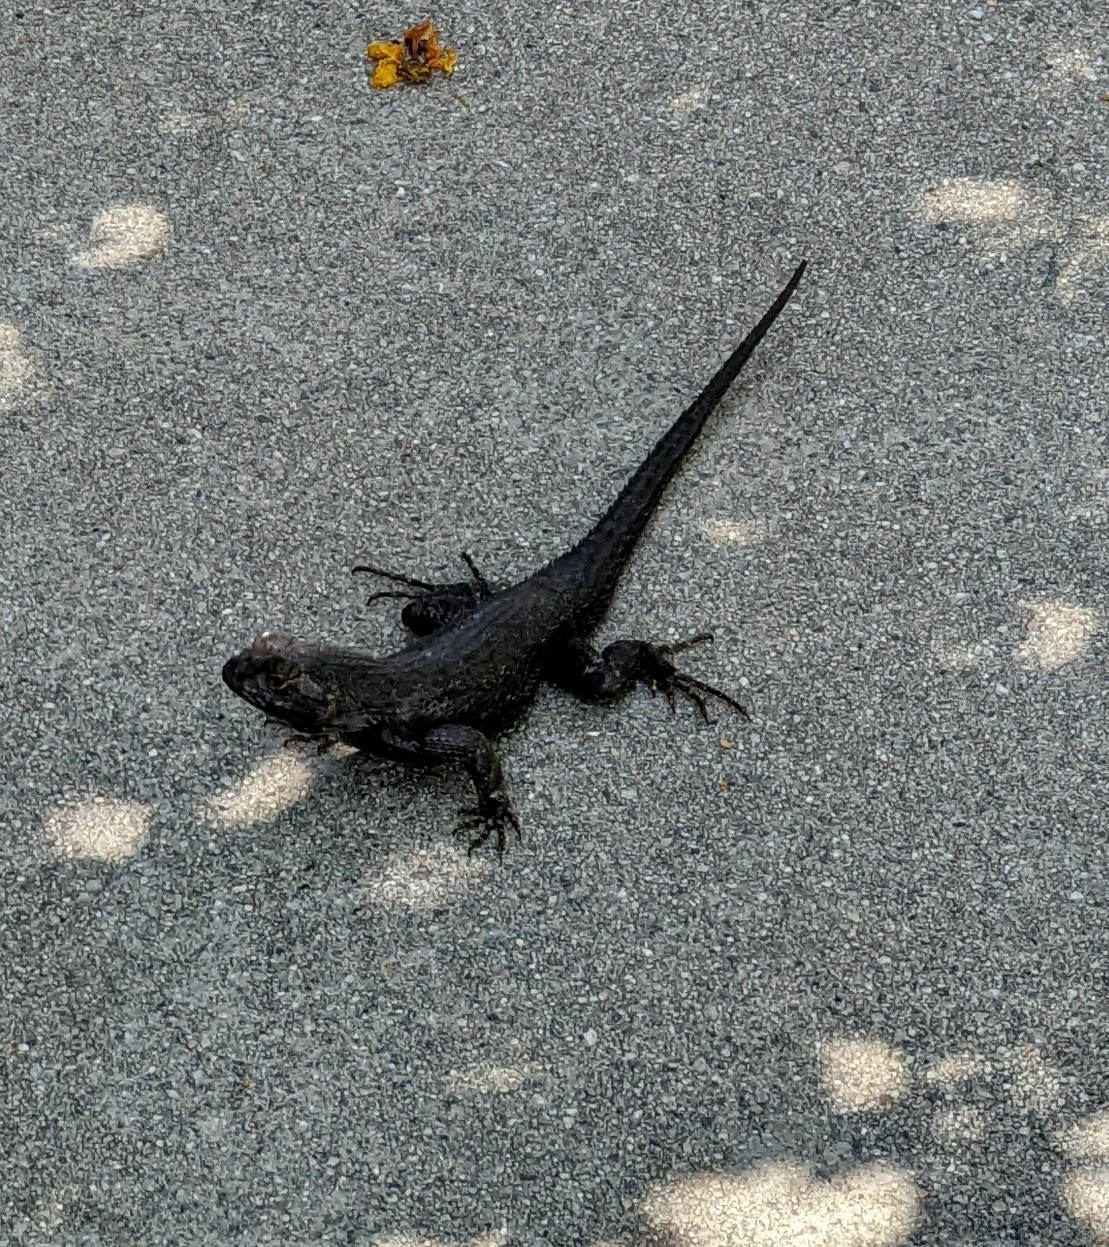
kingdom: Animalia
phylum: Chordata
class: Squamata
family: Phrynosomatidae
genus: Sceloporus
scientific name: Sceloporus occidentalis
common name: Western fence lizard
